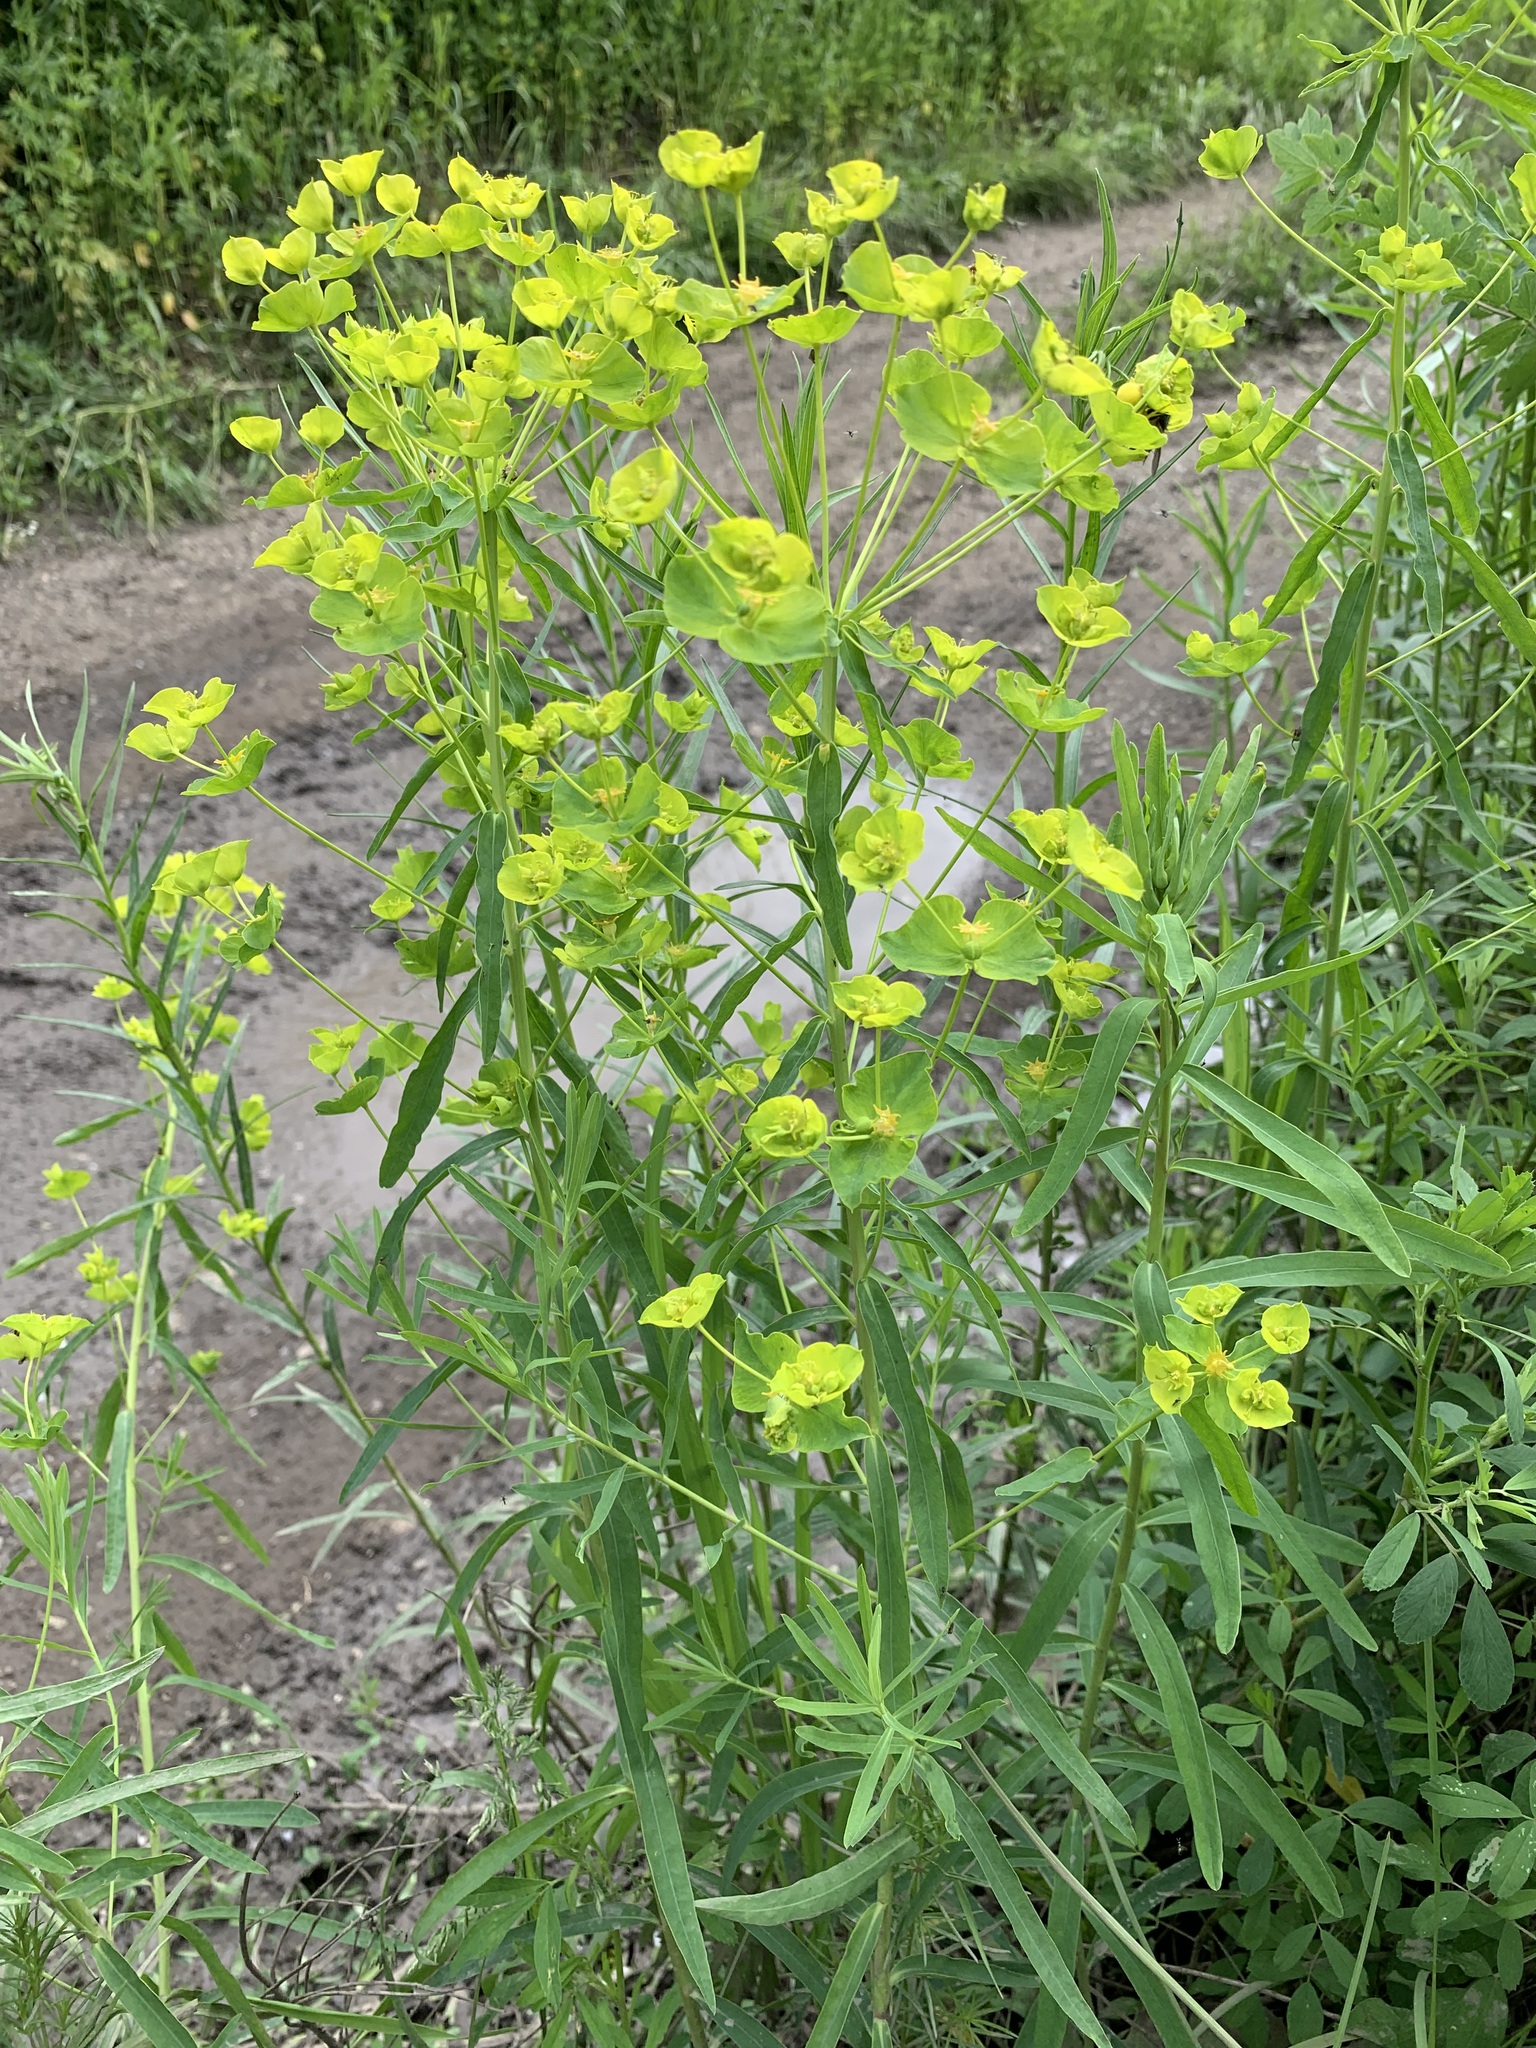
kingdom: Plantae
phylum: Tracheophyta
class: Magnoliopsida
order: Malpighiales
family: Euphorbiaceae
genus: Euphorbia
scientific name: Euphorbia virgata
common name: Leafy spurge
